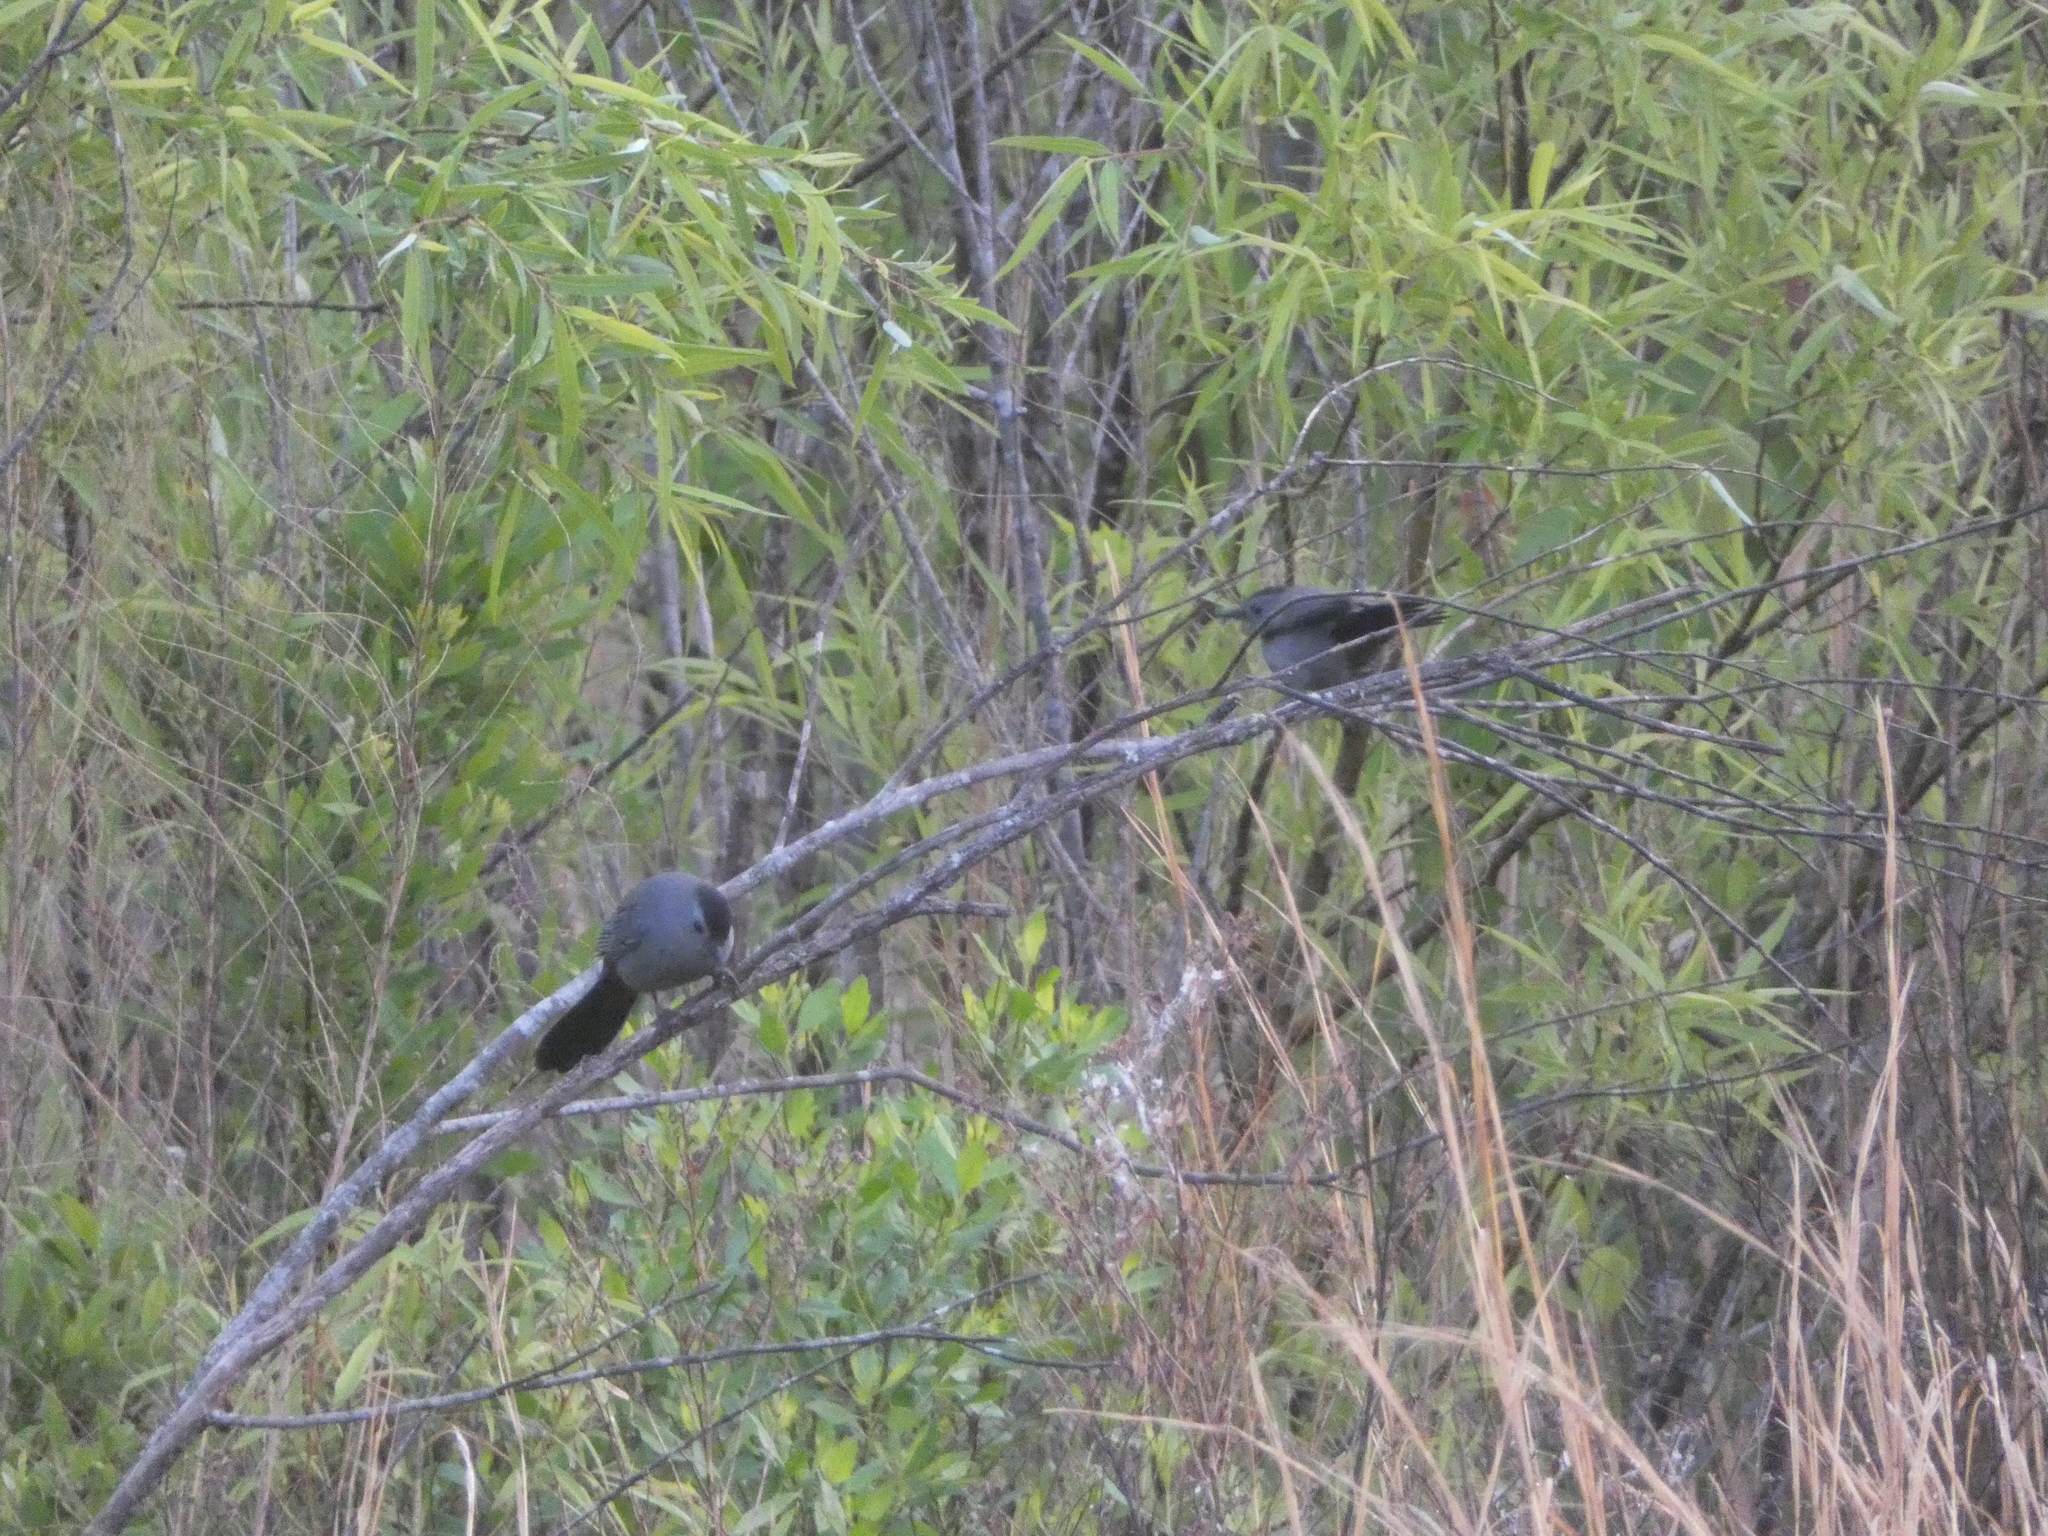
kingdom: Animalia
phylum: Chordata
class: Aves
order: Passeriformes
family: Mimidae
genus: Dumetella
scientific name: Dumetella carolinensis
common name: Gray catbird
